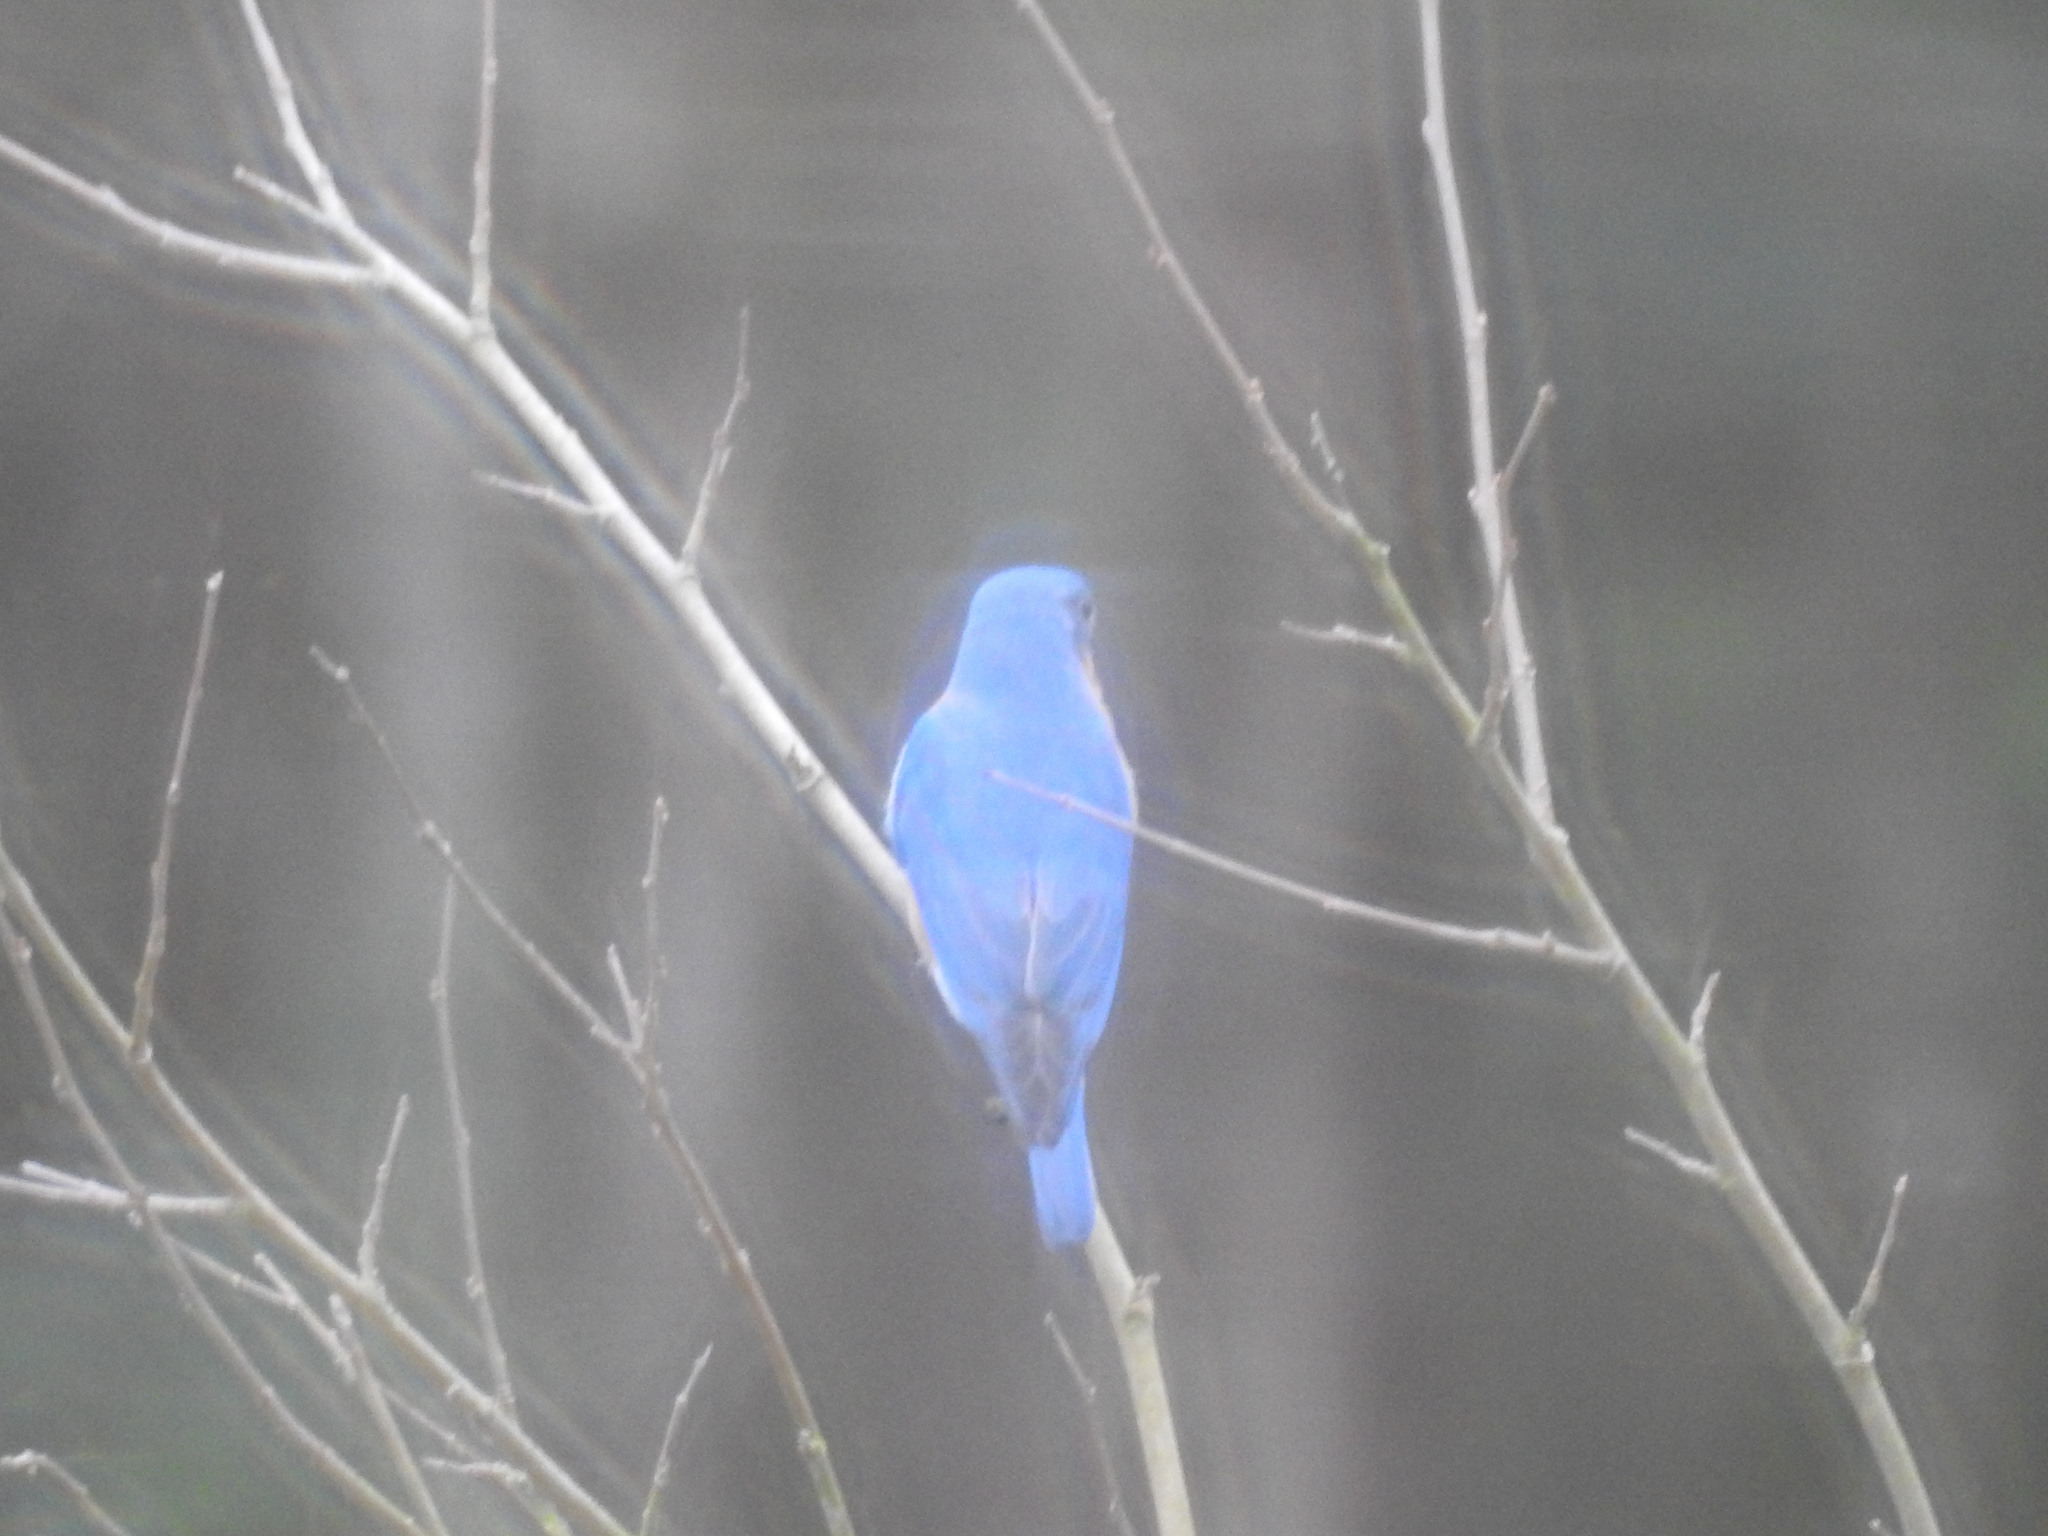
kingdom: Animalia
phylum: Chordata
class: Aves
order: Passeriformes
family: Turdidae
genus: Sialia
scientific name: Sialia sialis
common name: Eastern bluebird
